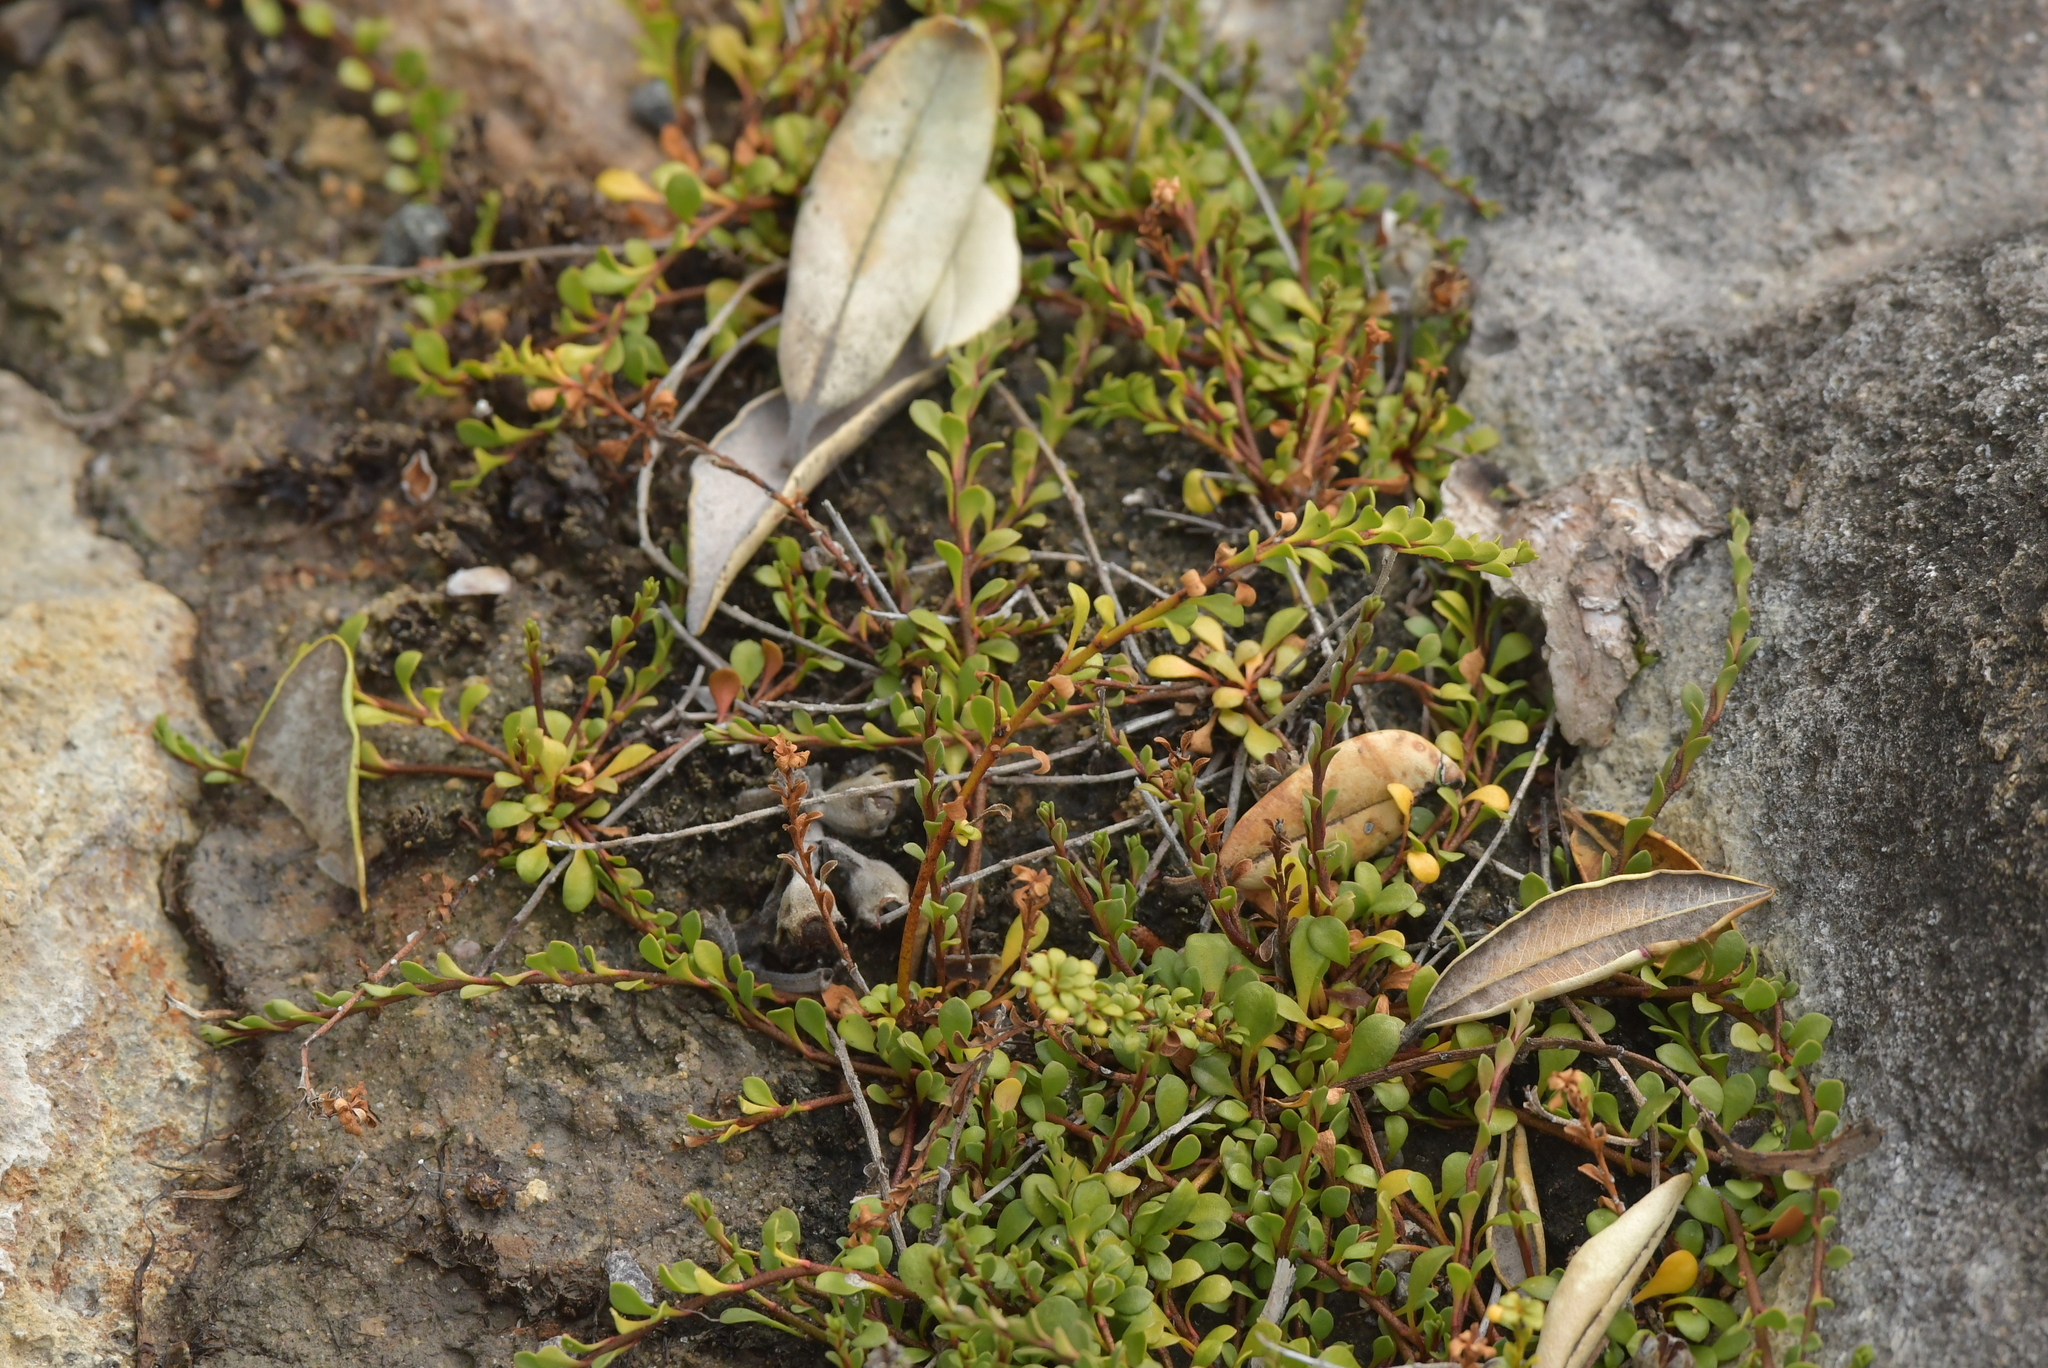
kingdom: Plantae
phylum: Tracheophyta
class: Magnoliopsida
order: Ericales
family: Primulaceae
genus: Samolus
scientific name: Samolus repens
